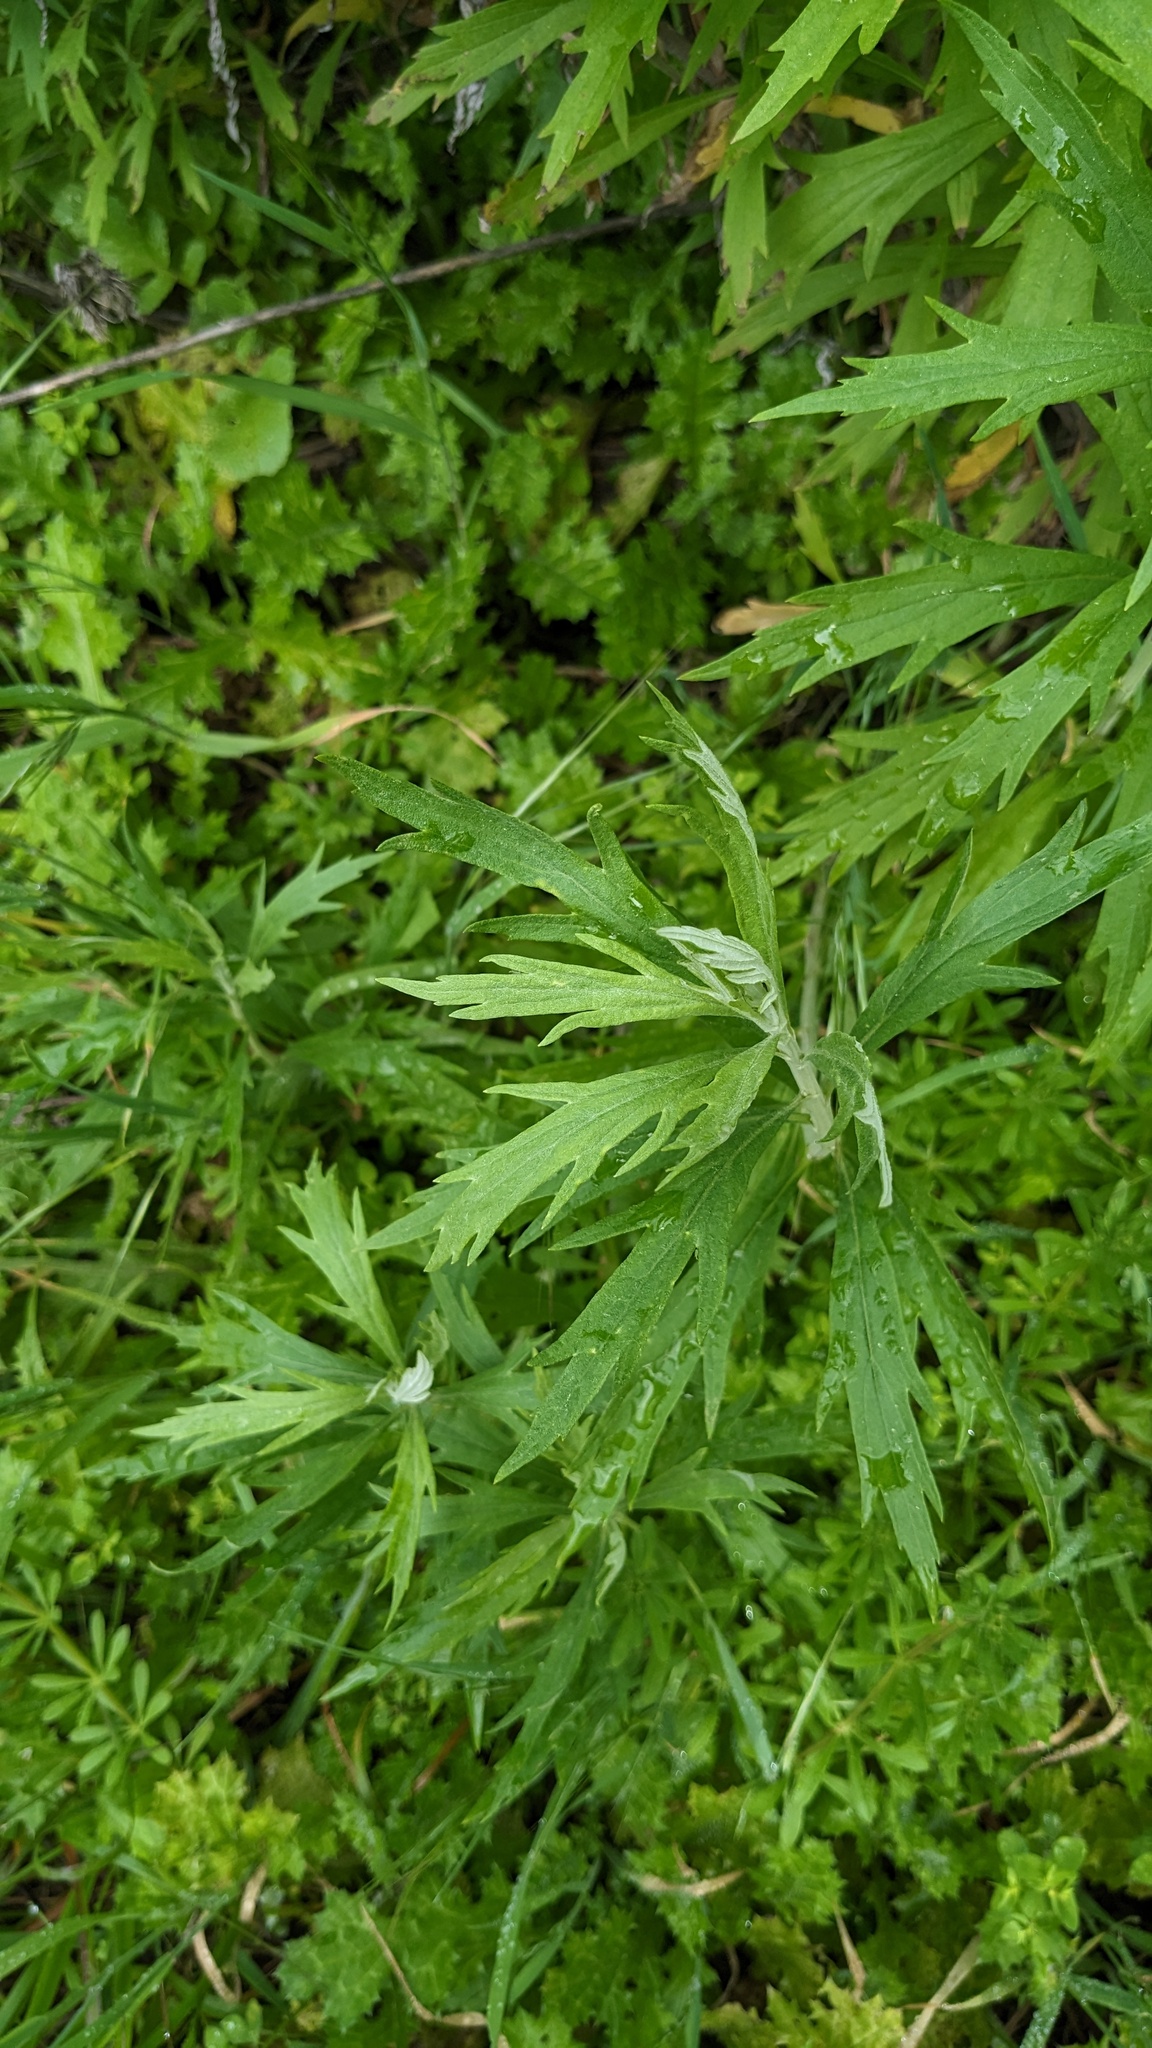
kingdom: Plantae
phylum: Tracheophyta
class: Magnoliopsida
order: Asterales
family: Asteraceae
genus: Artemisia
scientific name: Artemisia douglasiana
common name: Northwest mugwort
